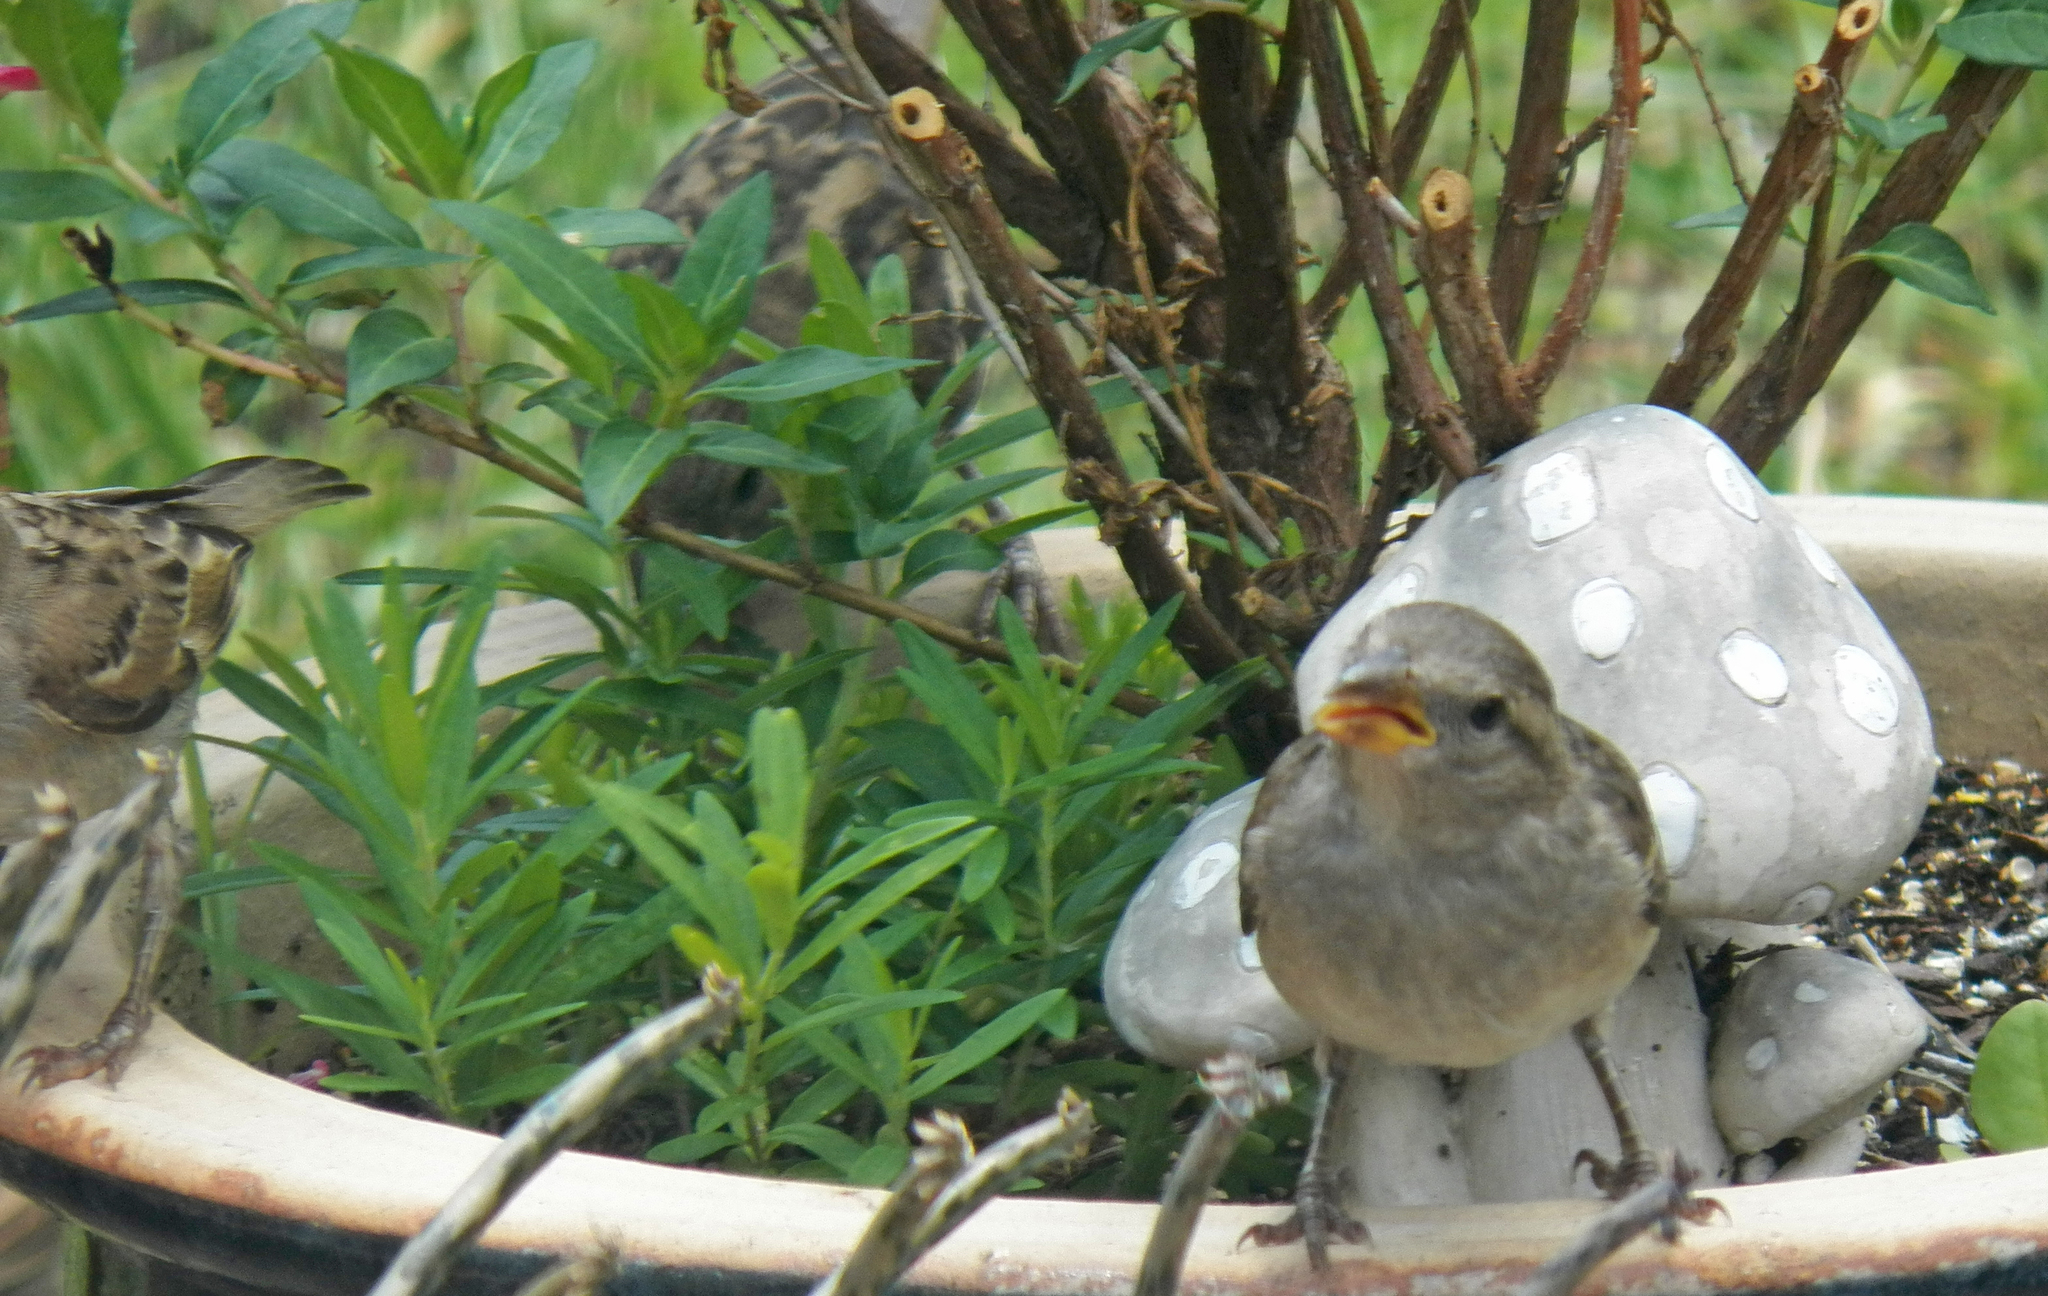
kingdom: Animalia
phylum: Chordata
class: Aves
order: Passeriformes
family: Passeridae
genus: Passer
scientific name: Passer domesticus
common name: House sparrow
